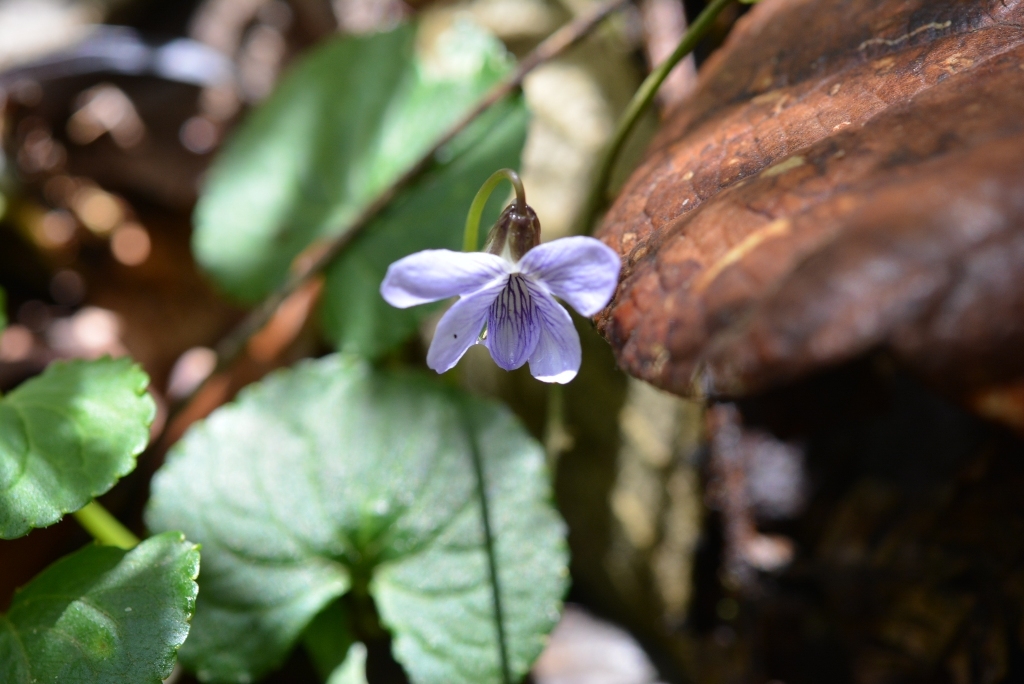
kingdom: Plantae
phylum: Tracheophyta
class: Magnoliopsida
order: Malpighiales
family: Violaceae
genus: Viola
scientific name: Viola nannei
